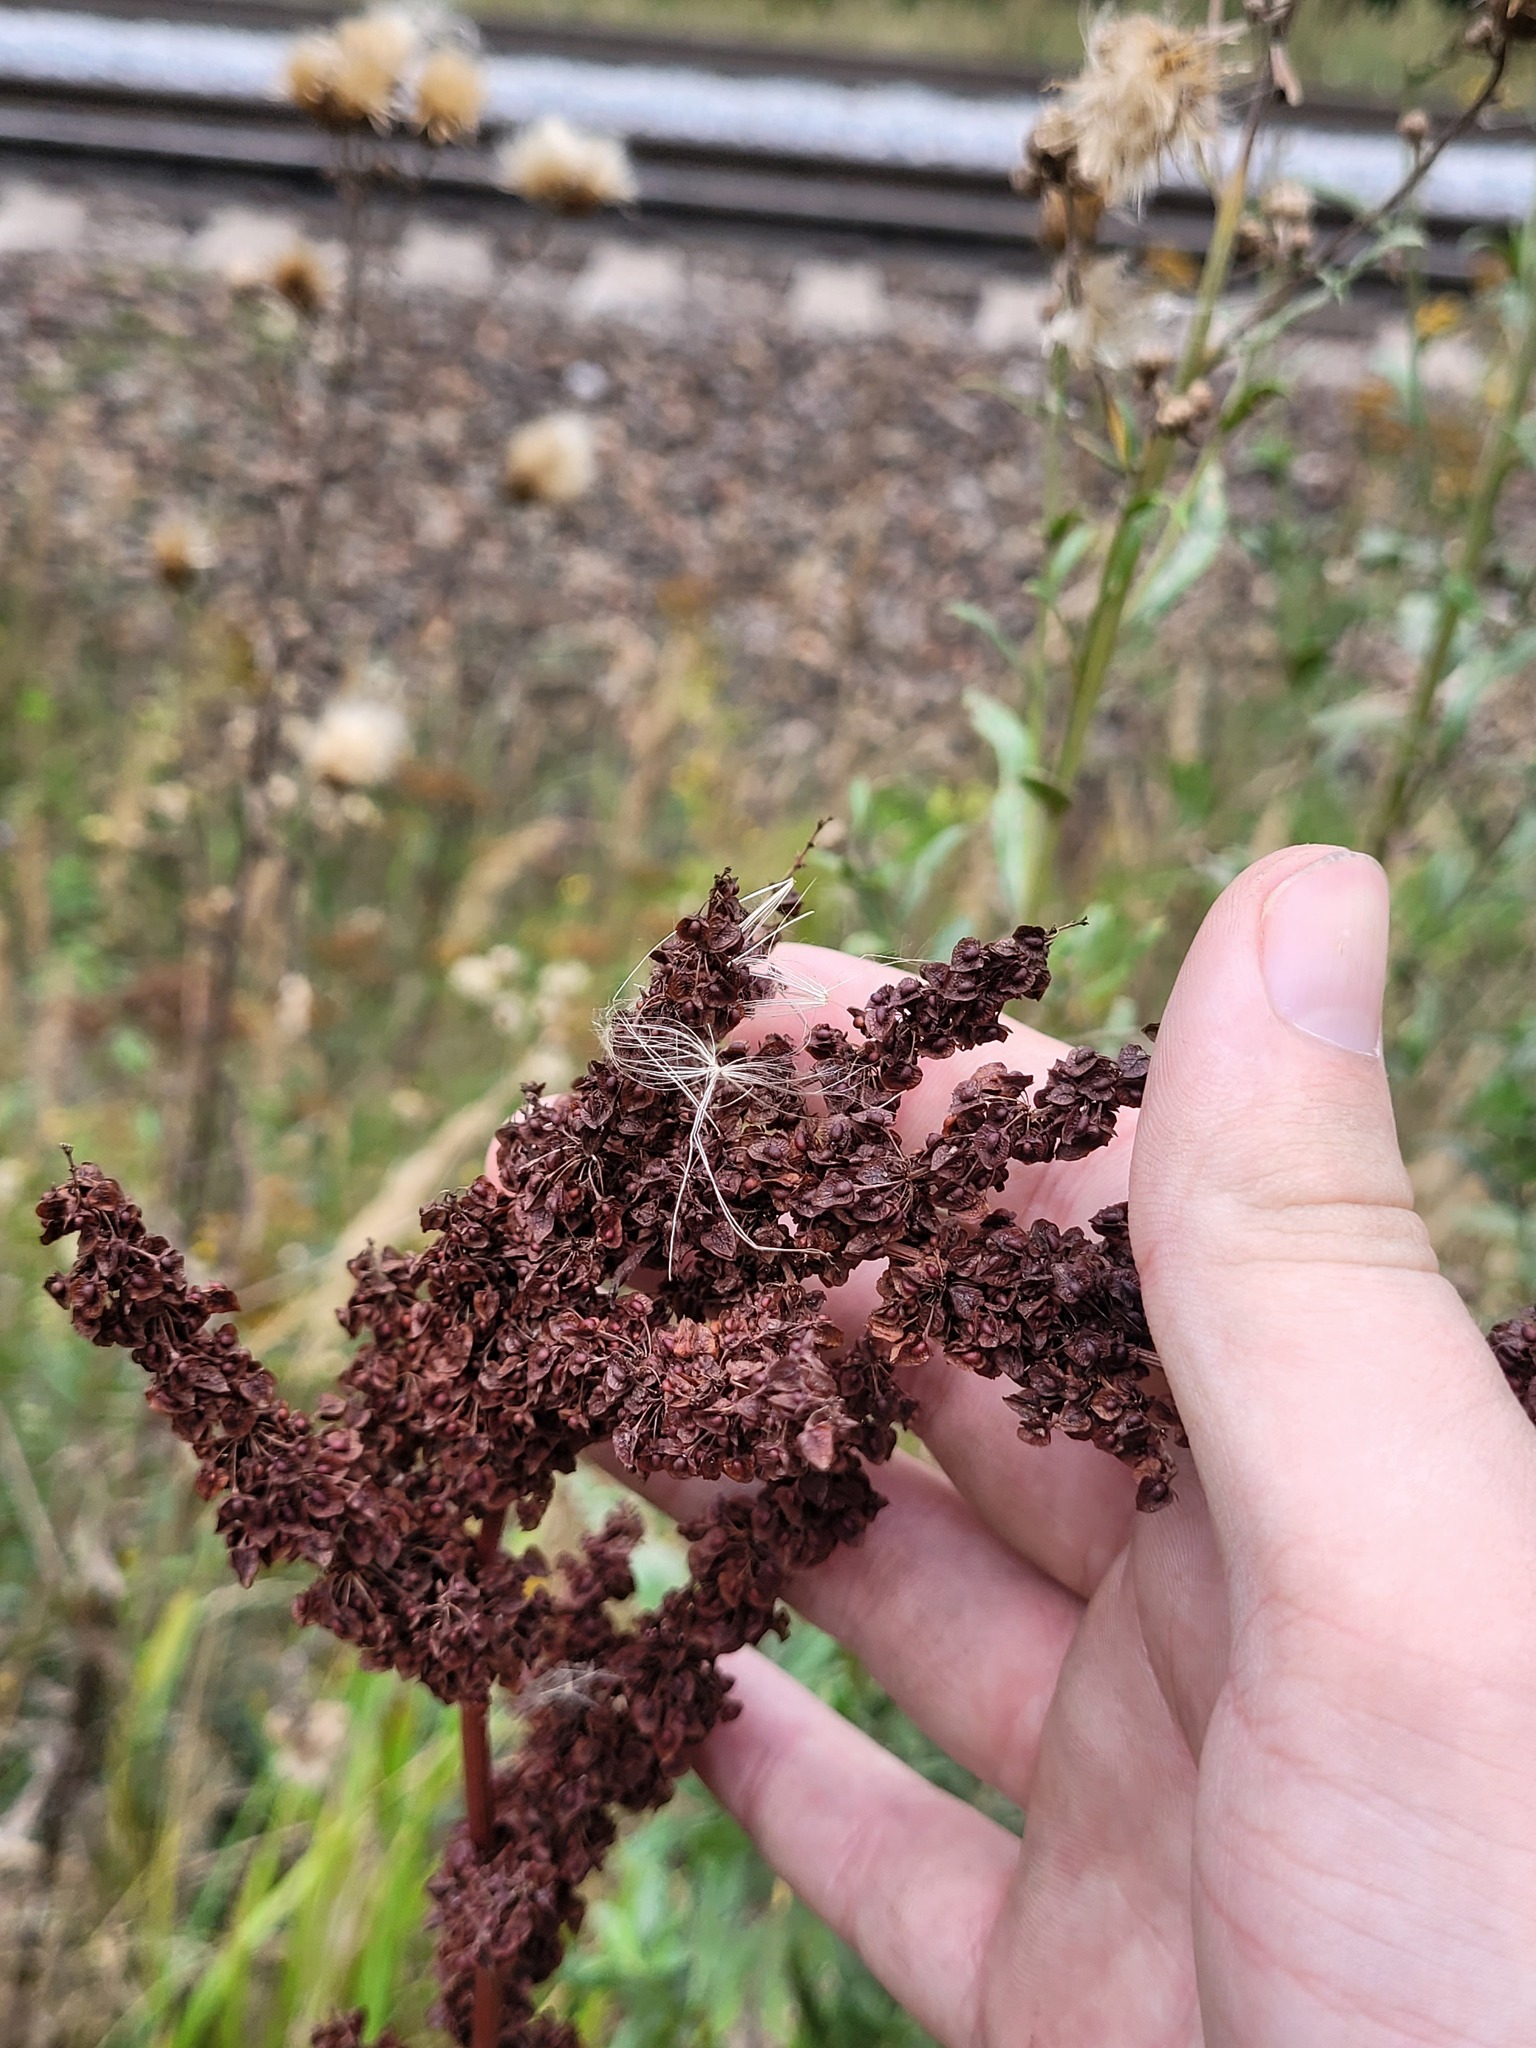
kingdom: Plantae
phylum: Tracheophyta
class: Magnoliopsida
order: Caryophyllales
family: Polygonaceae
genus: Rumex
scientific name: Rumex crispus
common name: Curled dock
